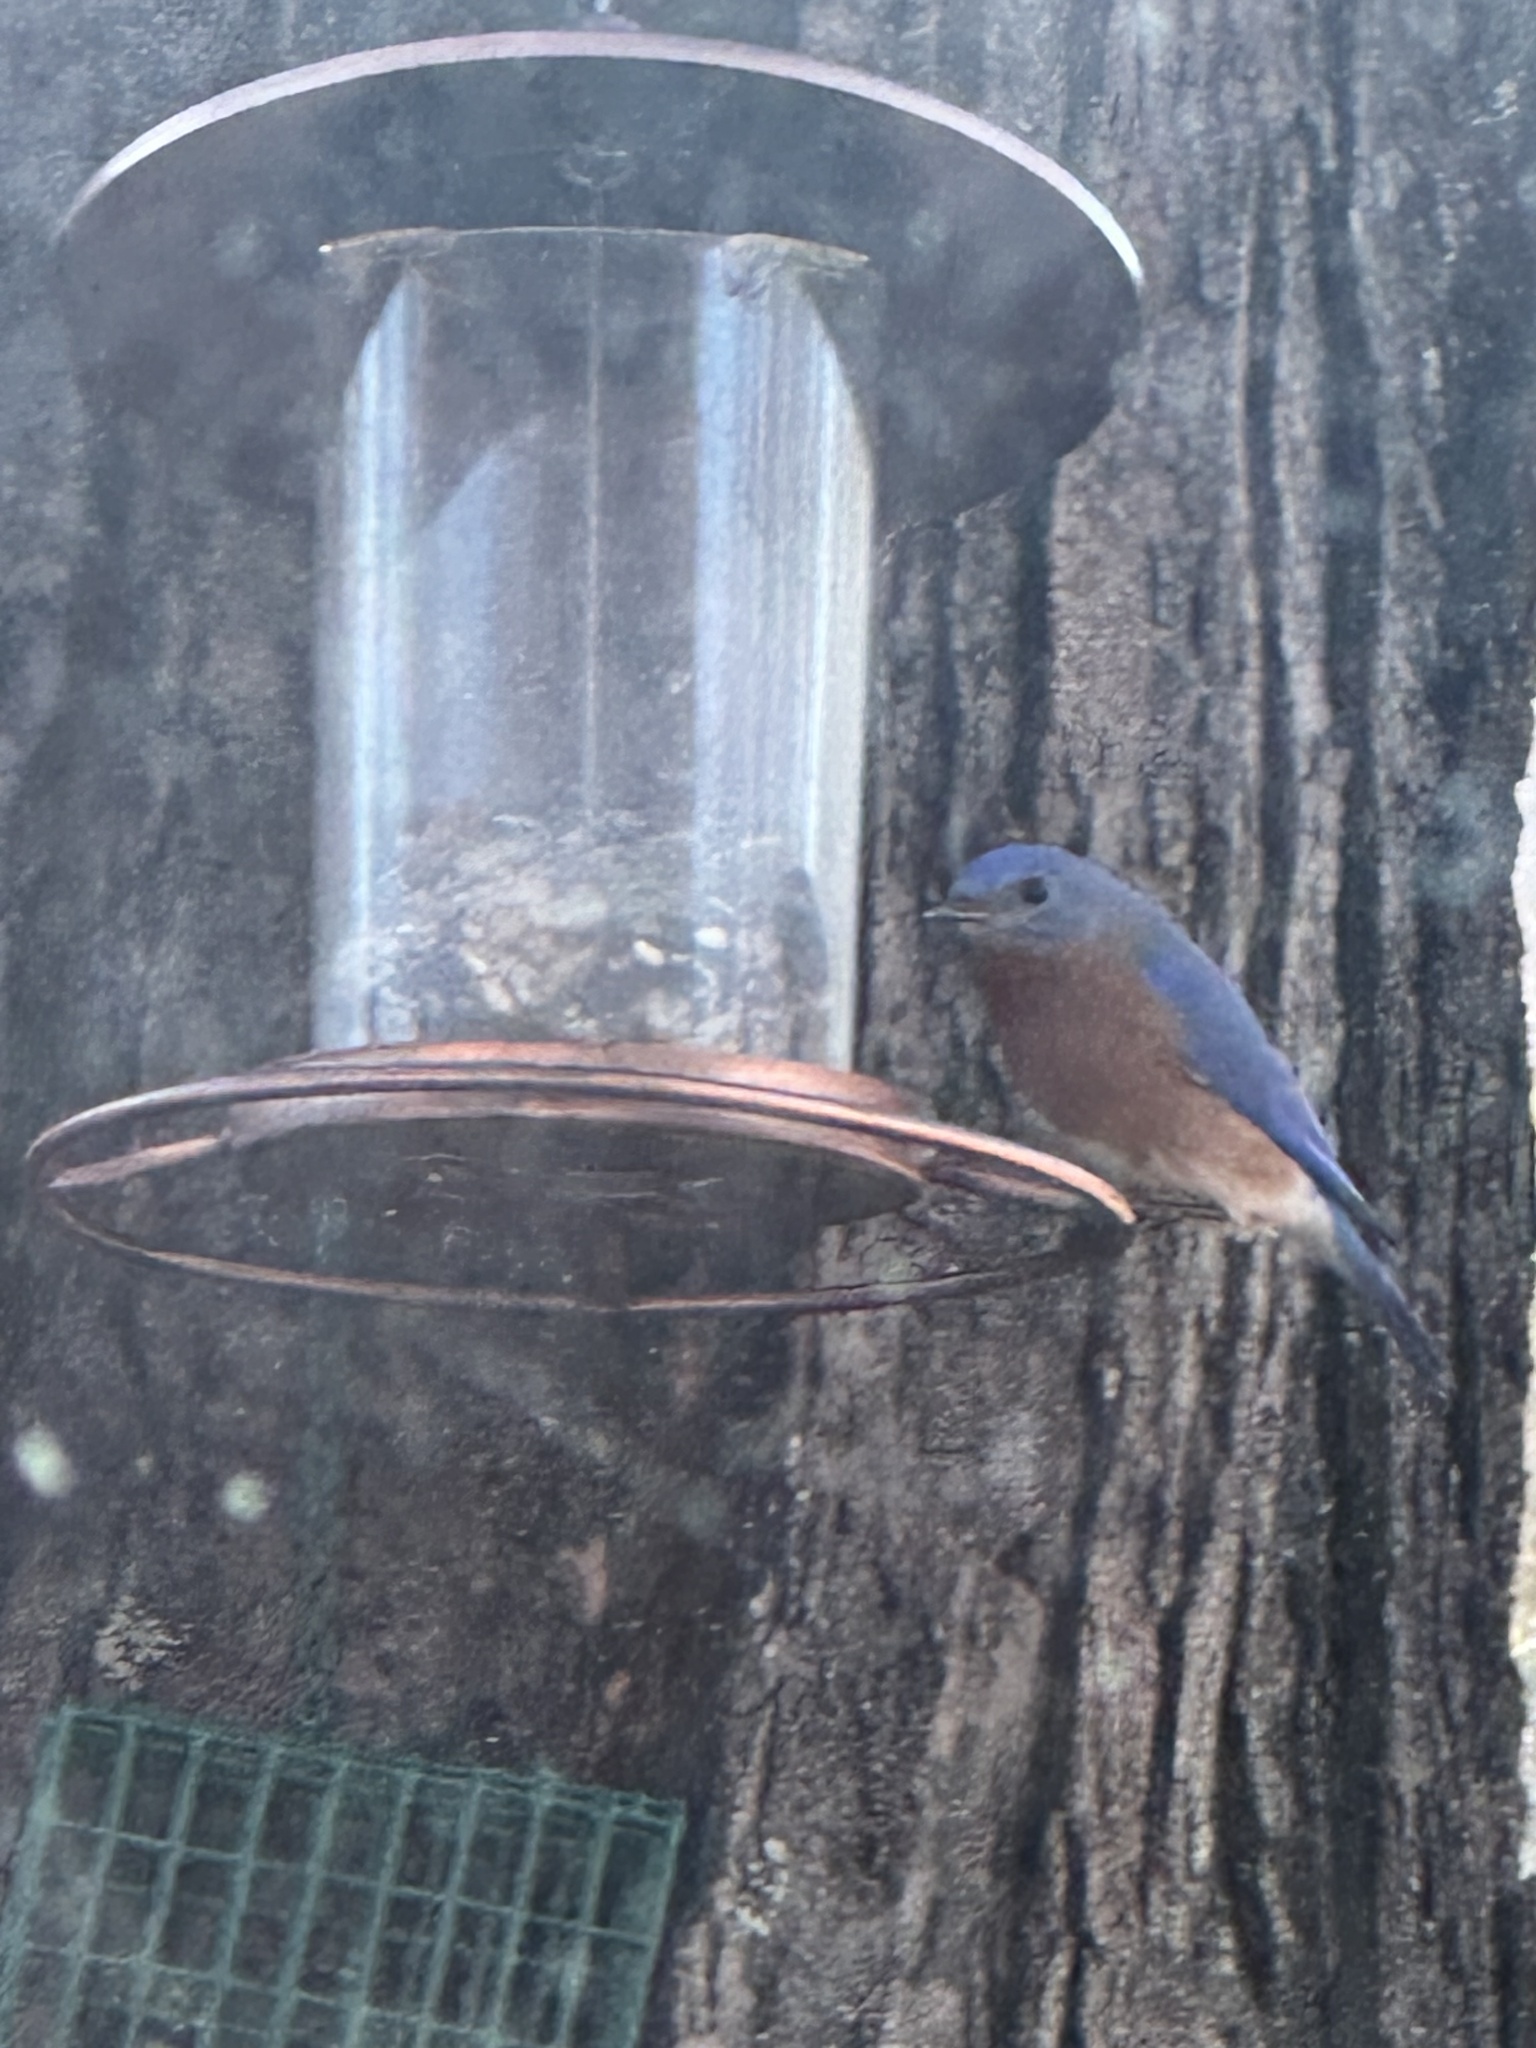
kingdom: Animalia
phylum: Chordata
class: Aves
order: Passeriformes
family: Turdidae
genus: Sialia
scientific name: Sialia sialis
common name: Eastern bluebird
